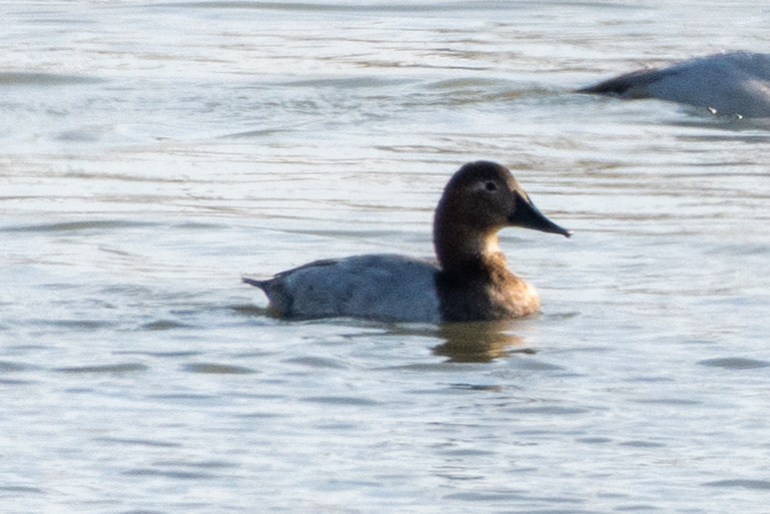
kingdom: Animalia
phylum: Chordata
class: Aves
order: Anseriformes
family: Anatidae
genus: Aythya
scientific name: Aythya valisineria
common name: Canvasback
